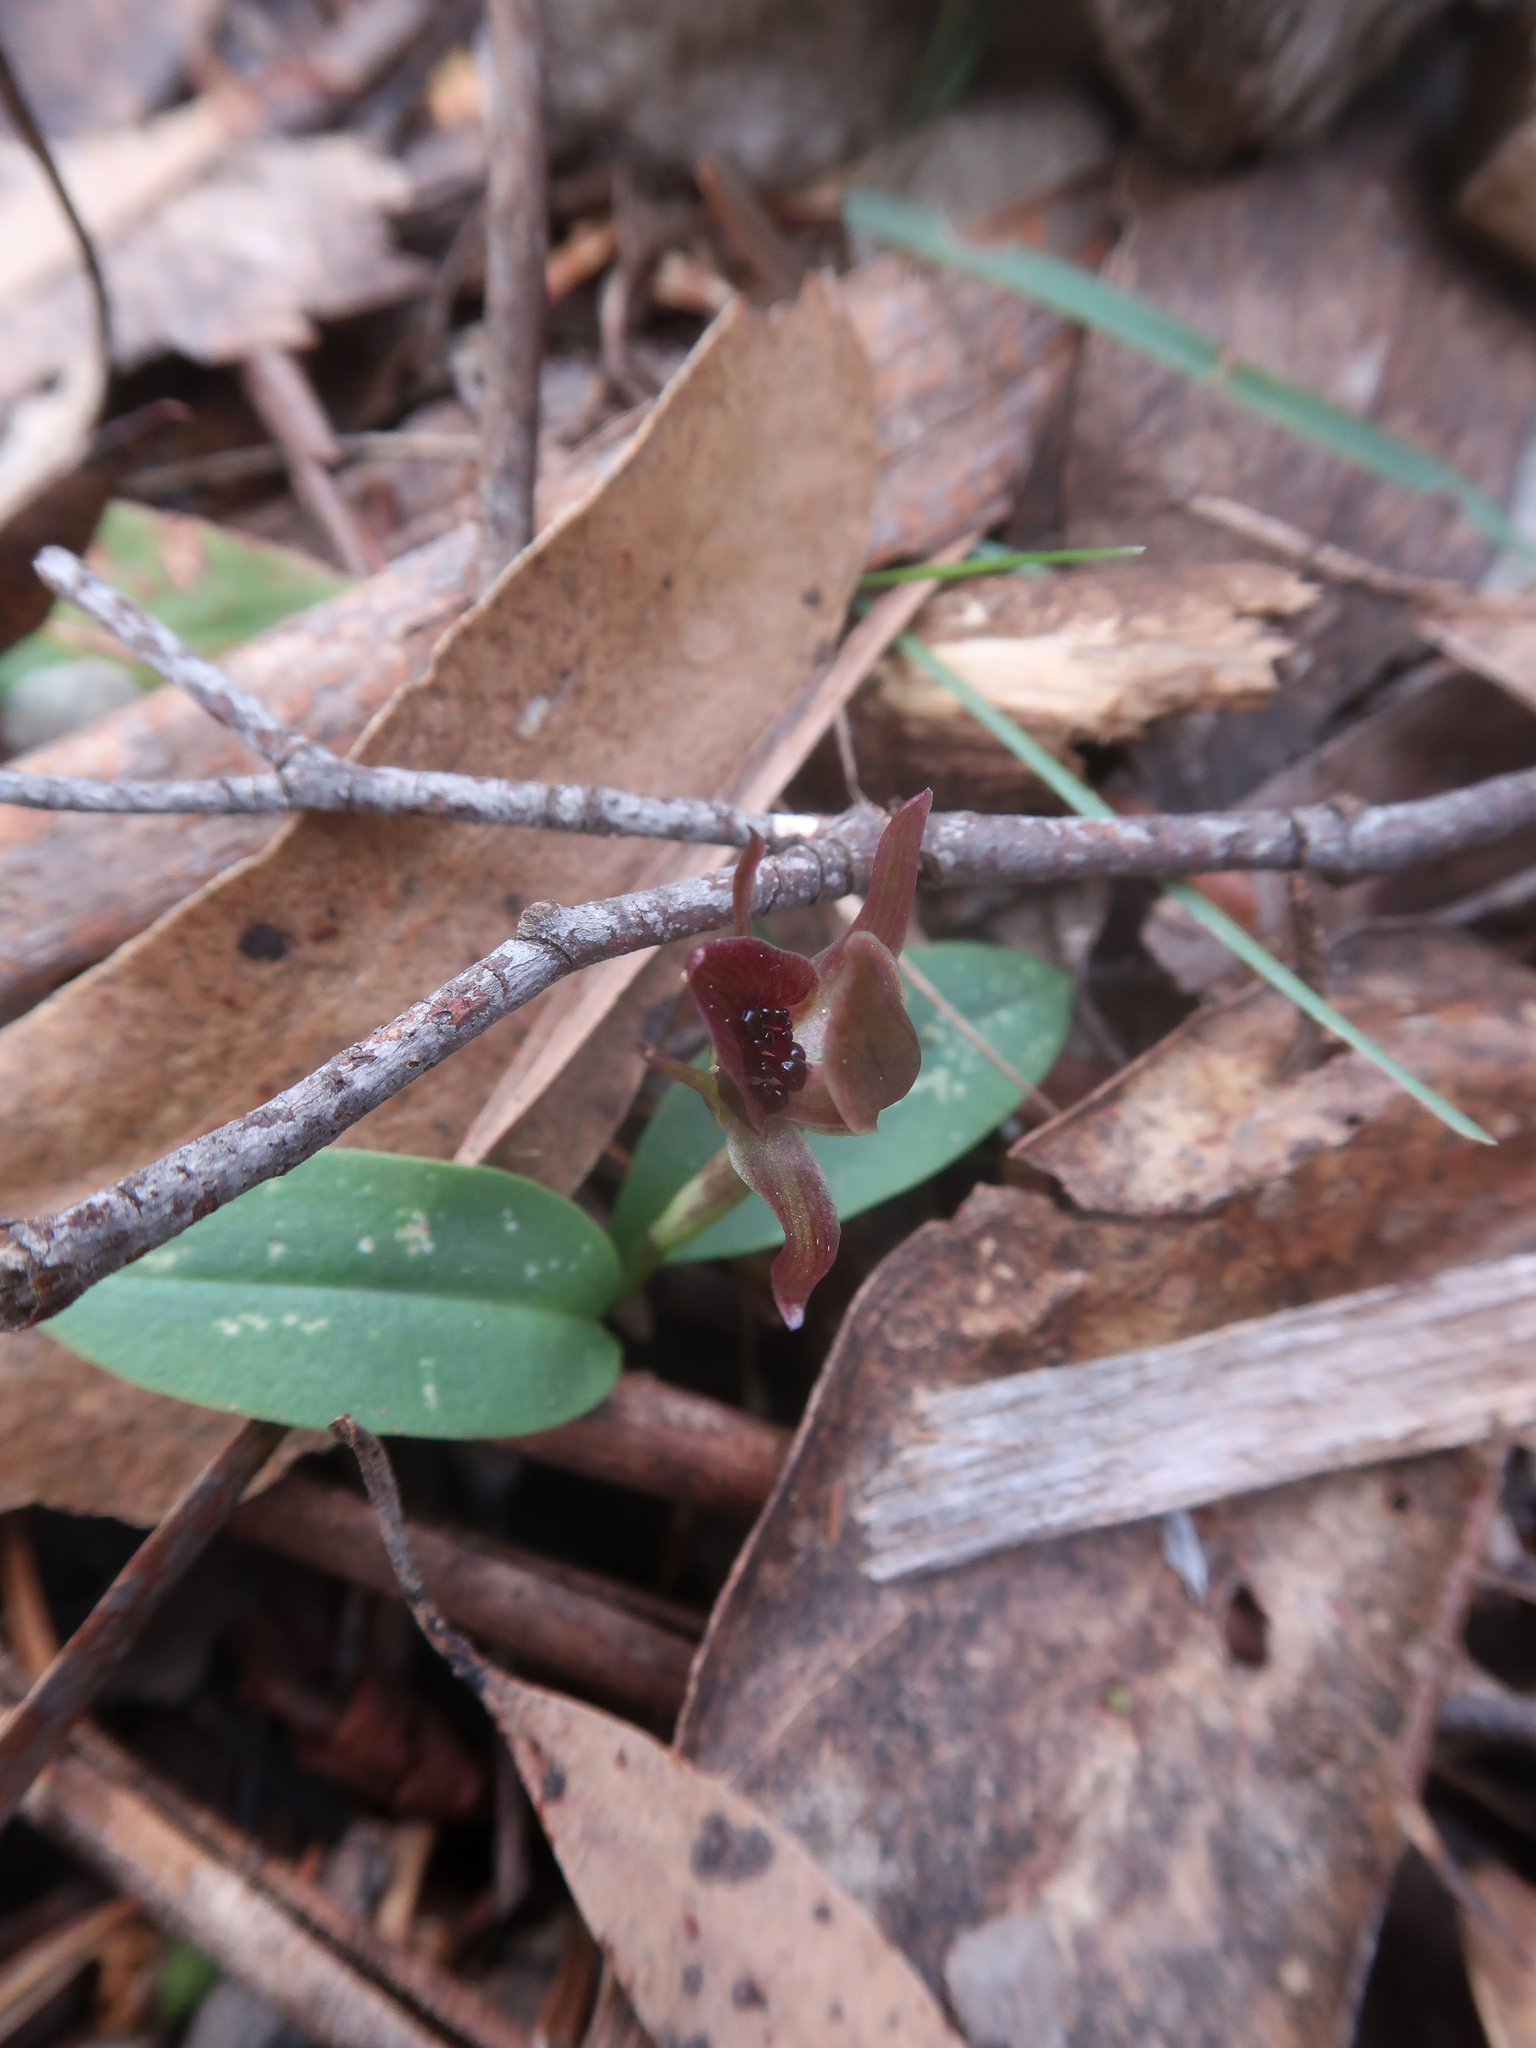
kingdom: Plantae
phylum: Tracheophyta
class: Liliopsida
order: Asparagales
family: Orchidaceae
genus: Chiloglottis
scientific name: Chiloglottis grammata
